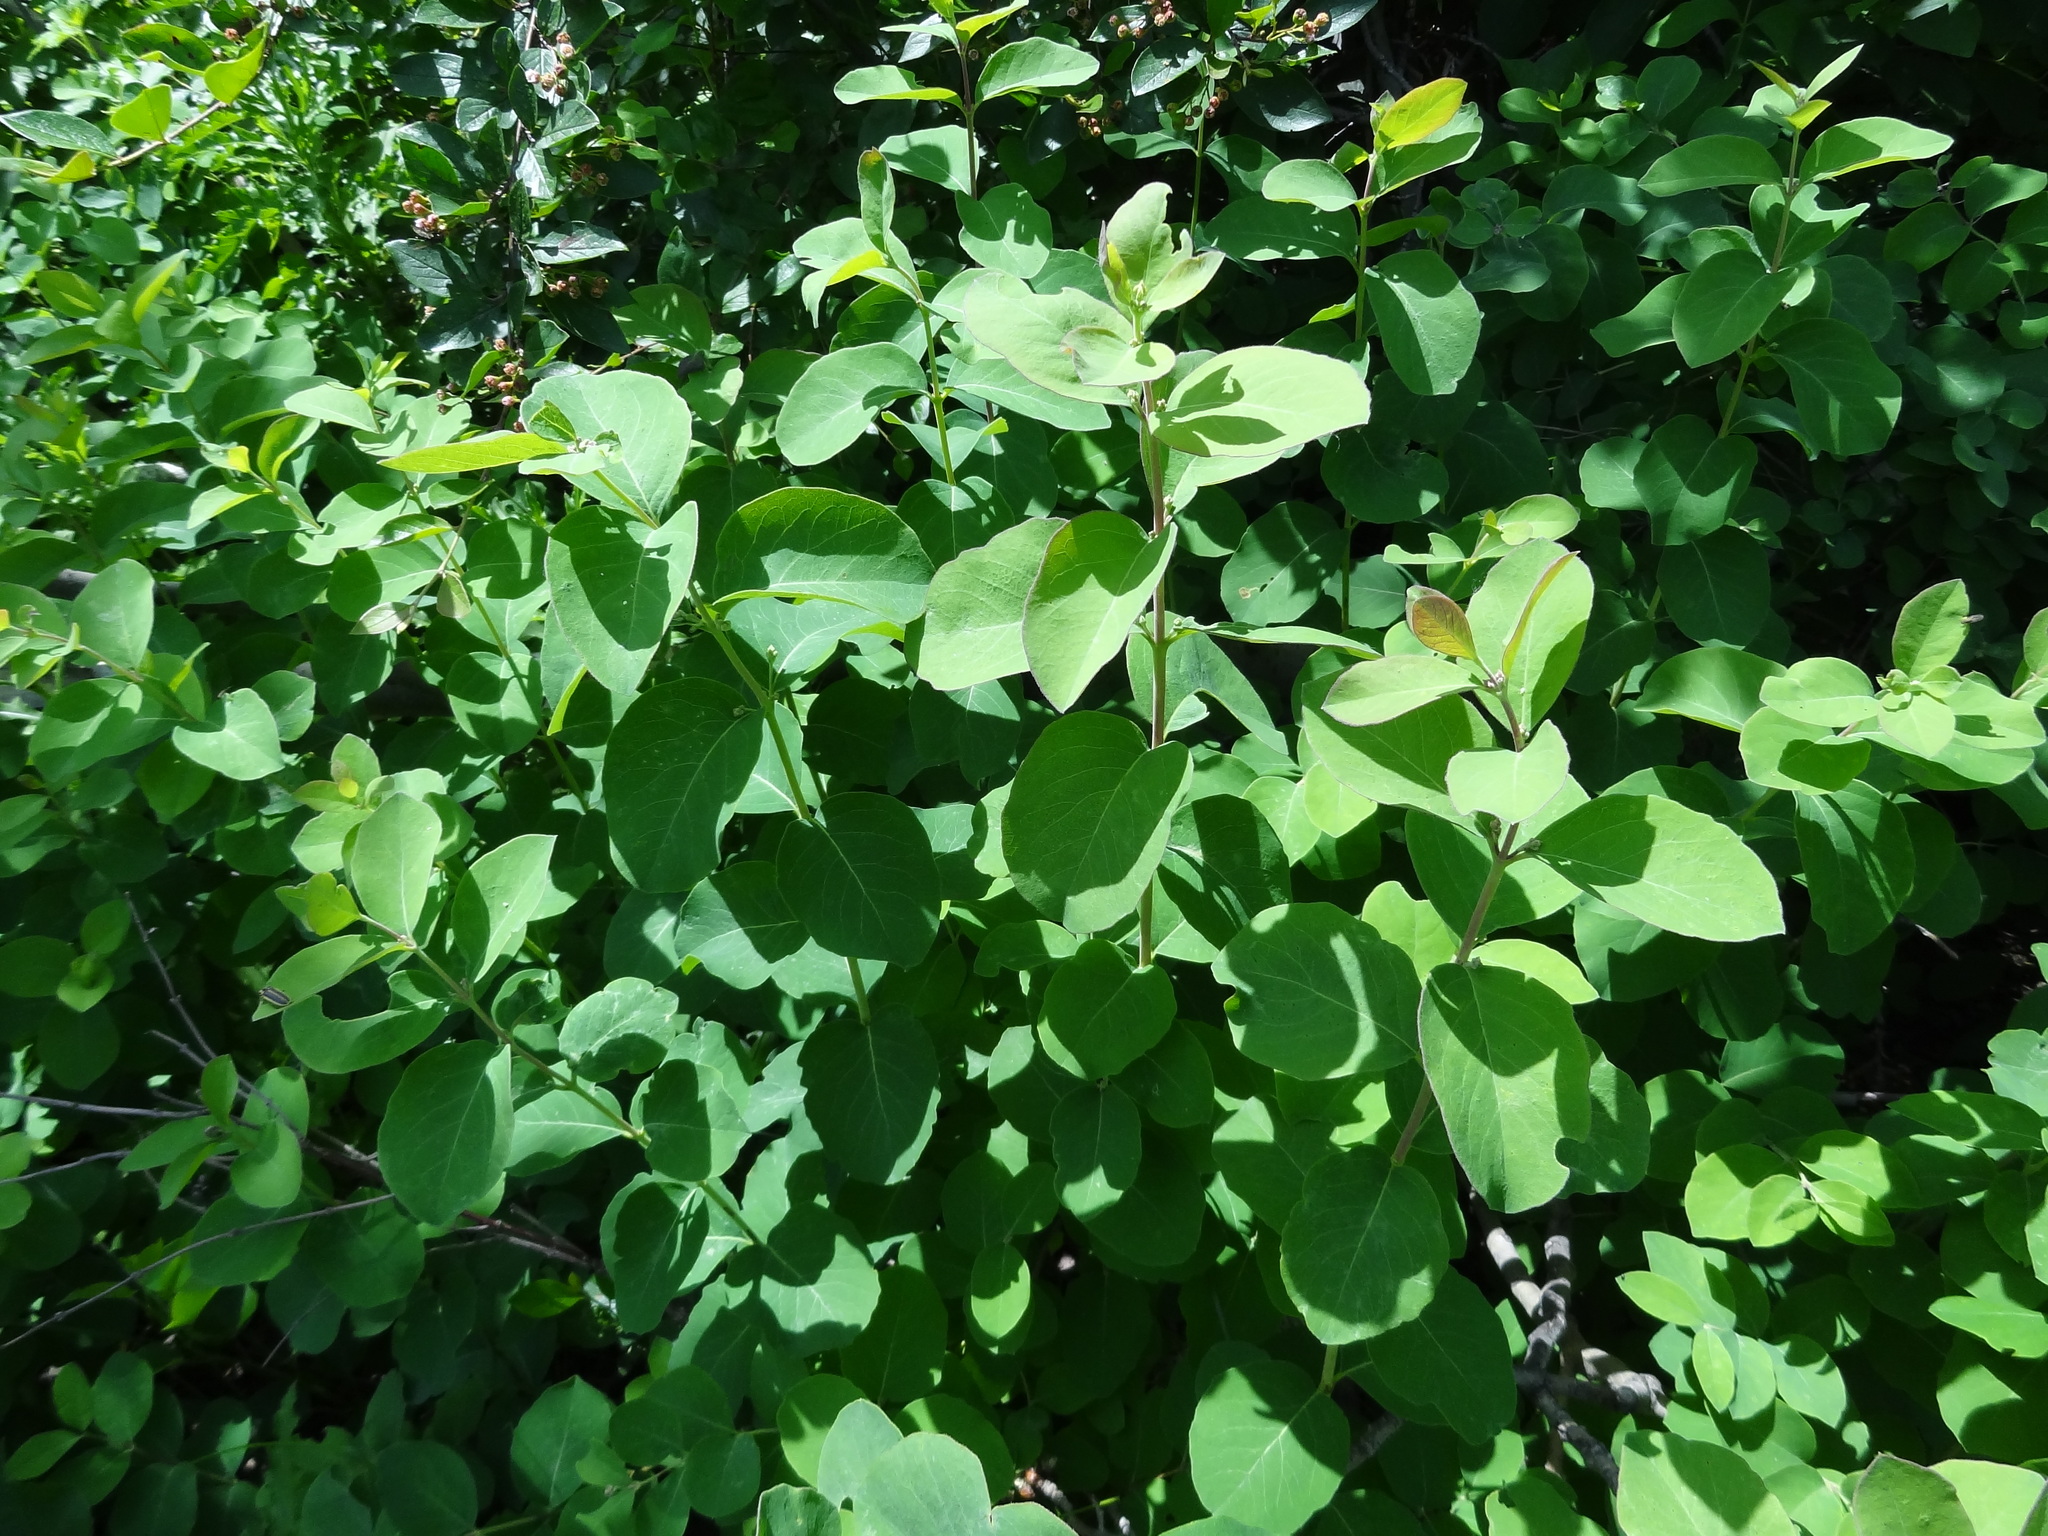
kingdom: Plantae
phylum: Tracheophyta
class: Magnoliopsida
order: Dipsacales
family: Caprifoliaceae
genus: Symphoricarpos
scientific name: Symphoricarpos occidentalis
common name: Wolfberry
